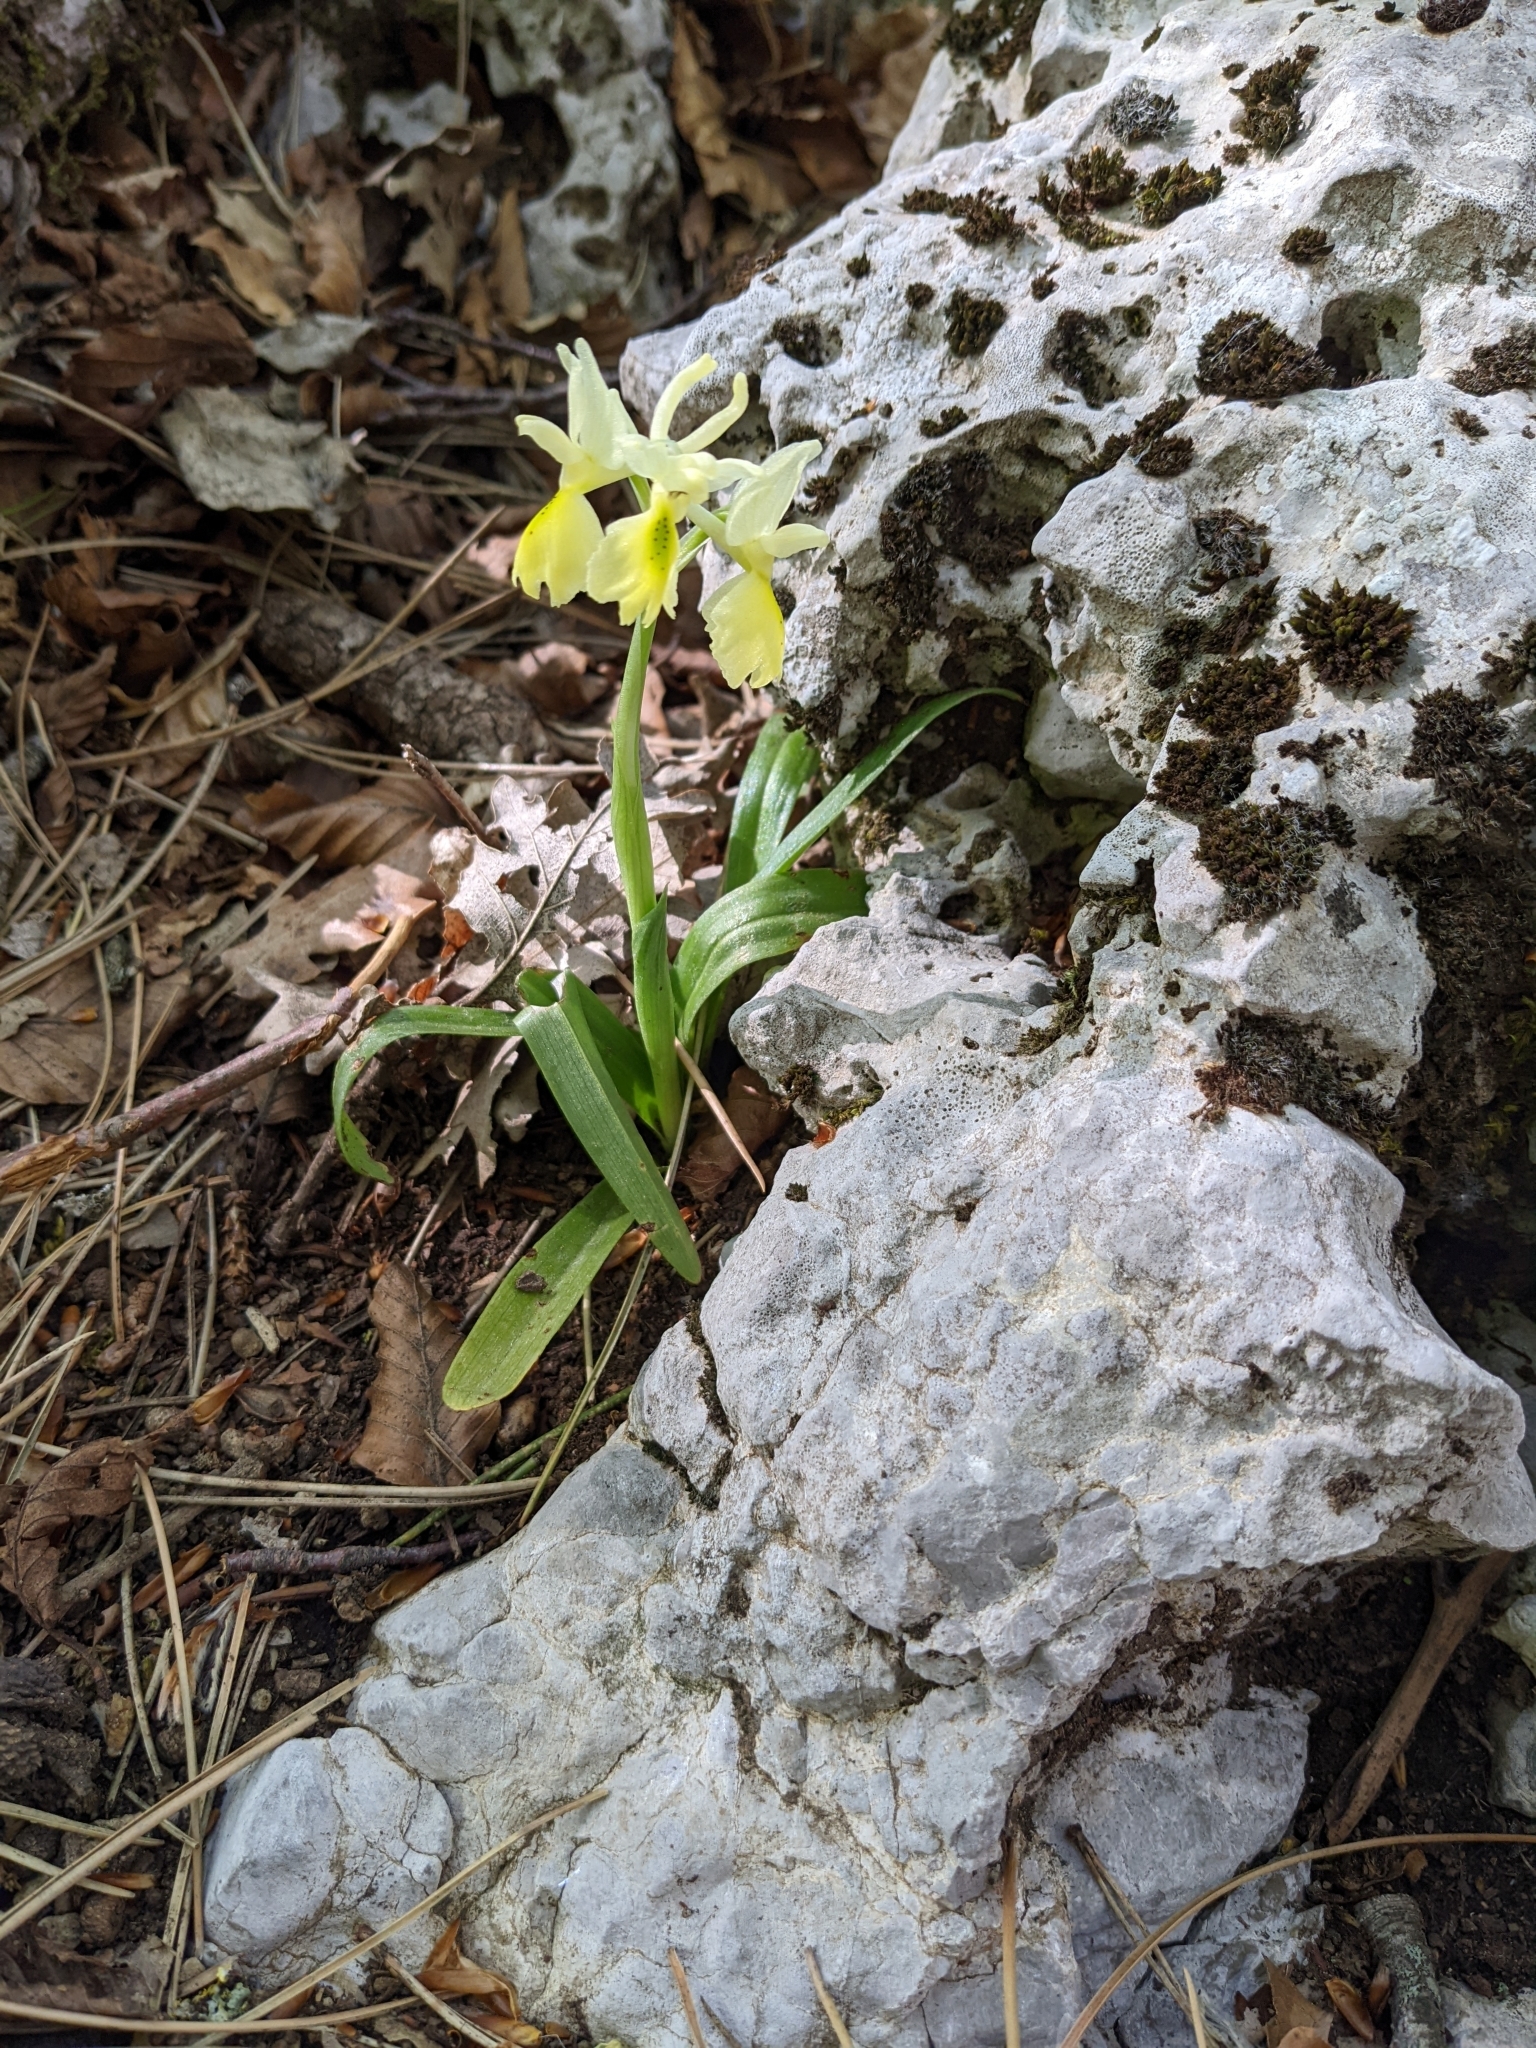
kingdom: Plantae
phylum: Tracheophyta
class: Liliopsida
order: Asparagales
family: Orchidaceae
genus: Orchis
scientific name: Orchis pauciflora
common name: Few-flowered orchid
